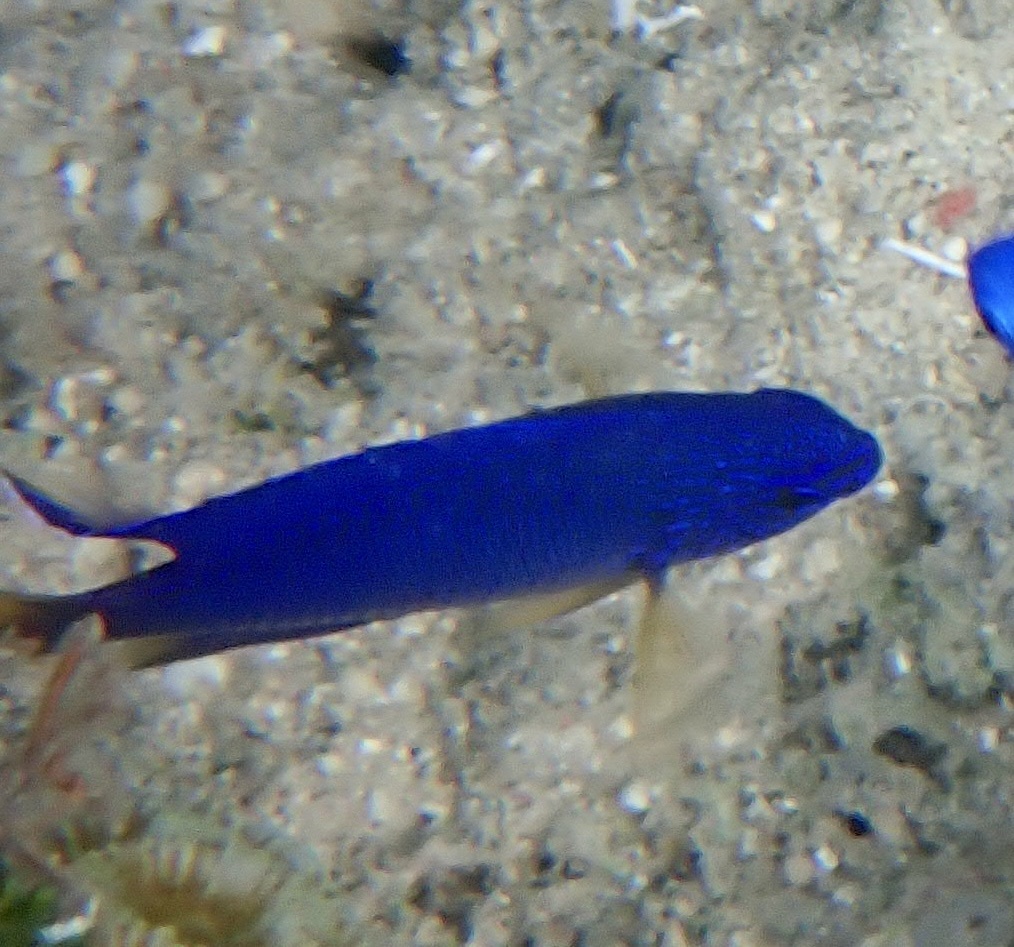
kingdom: Animalia
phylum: Chordata
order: Perciformes
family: Pomacentridae
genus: Pomacentrus
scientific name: Pomacentrus pavo
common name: Sapphire damsel
